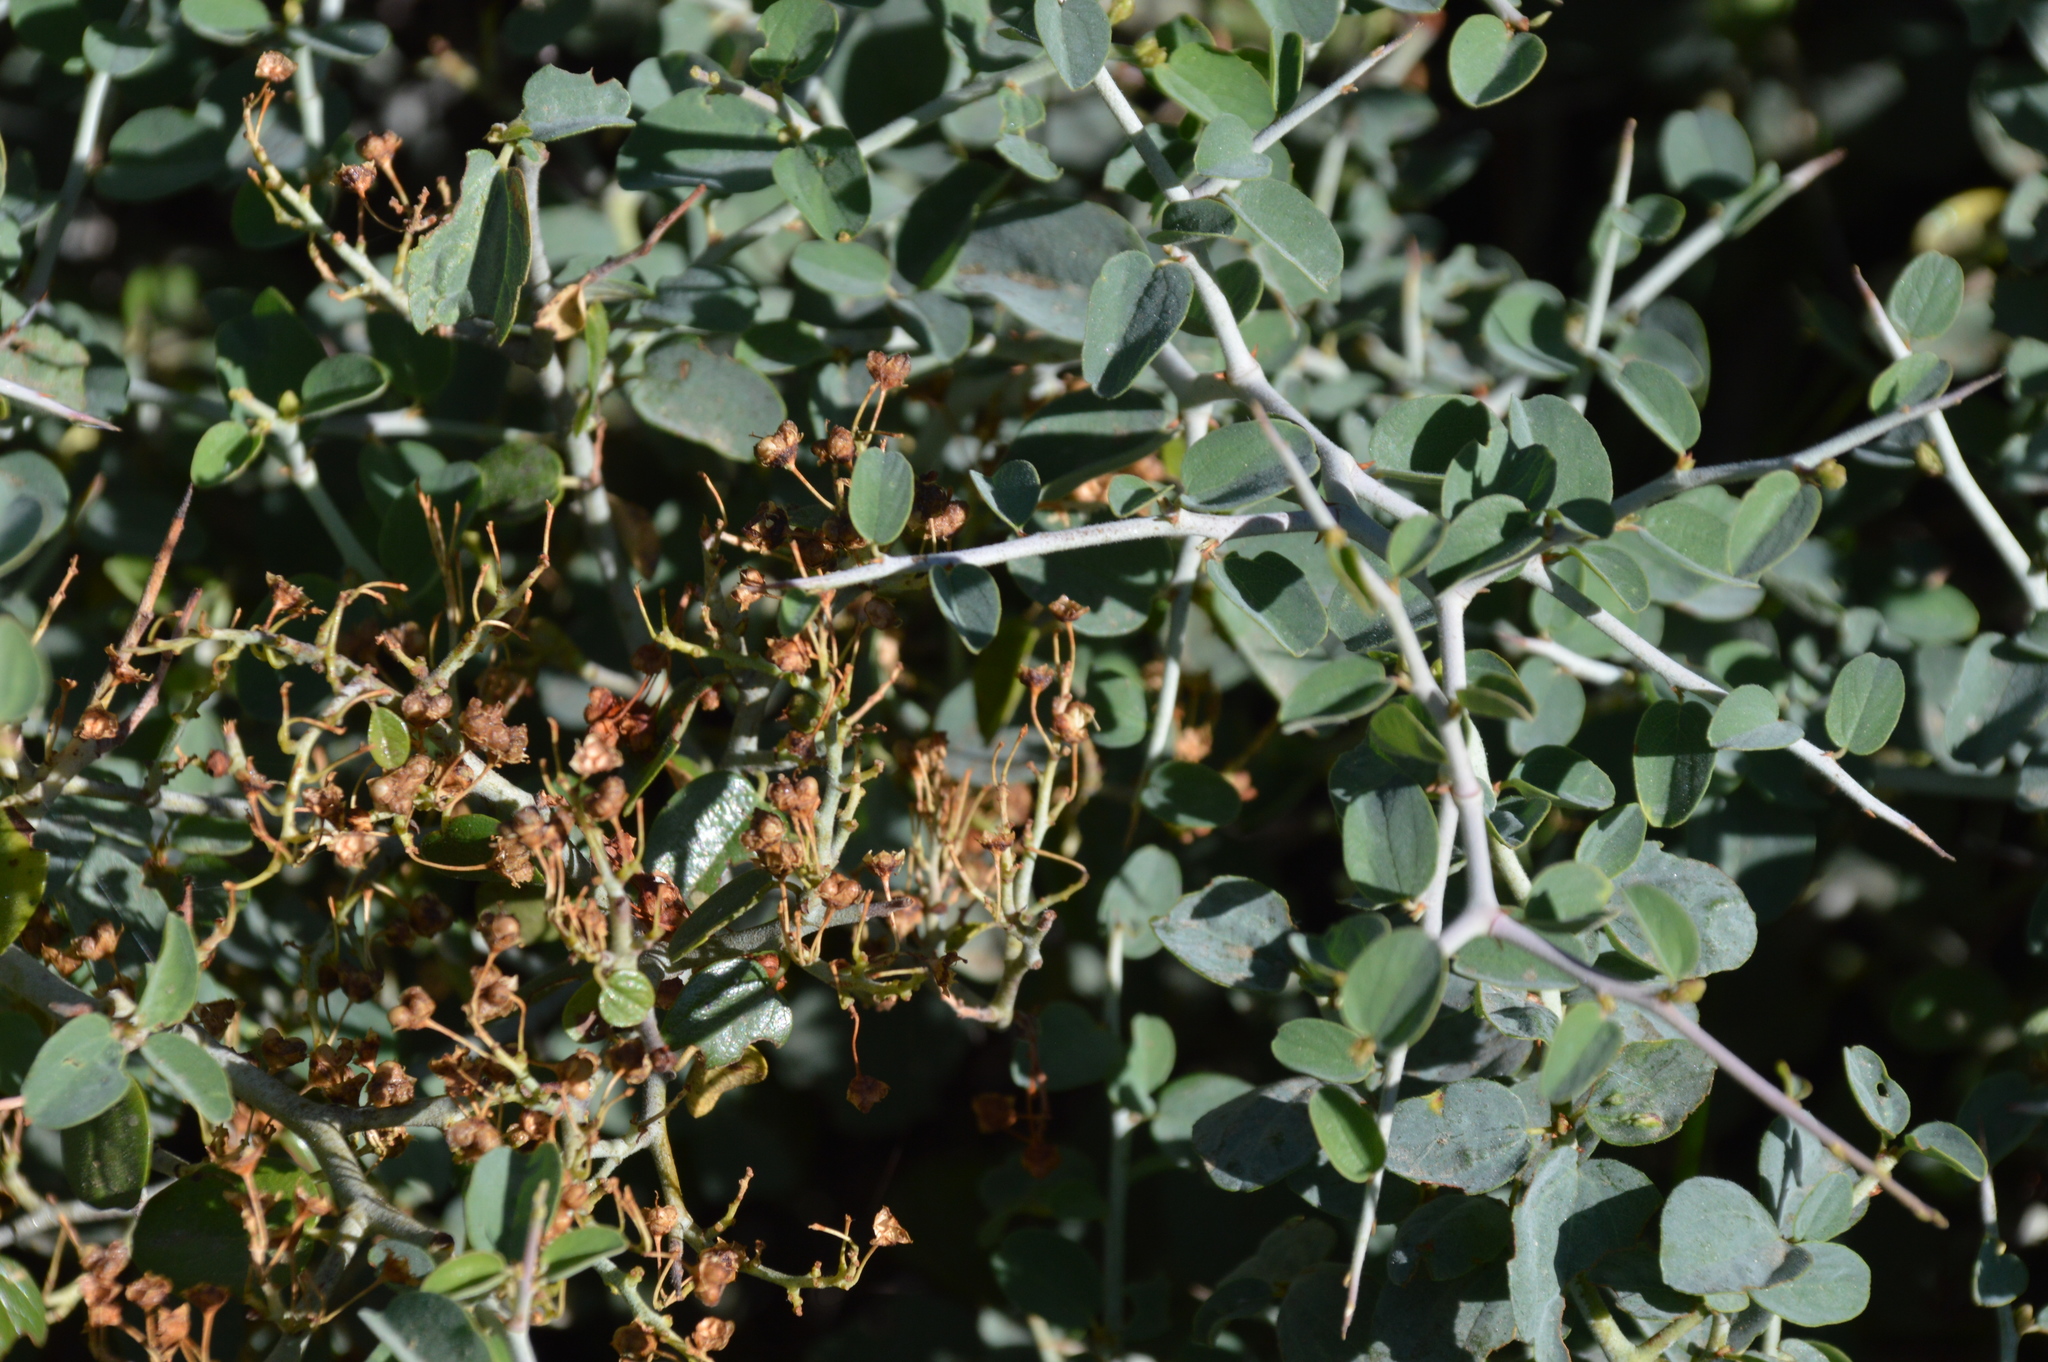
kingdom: Plantae
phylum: Tracheophyta
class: Magnoliopsida
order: Rosales
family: Rhamnaceae
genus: Ceanothus
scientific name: Ceanothus cordulatus
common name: Mountain whitethorn
